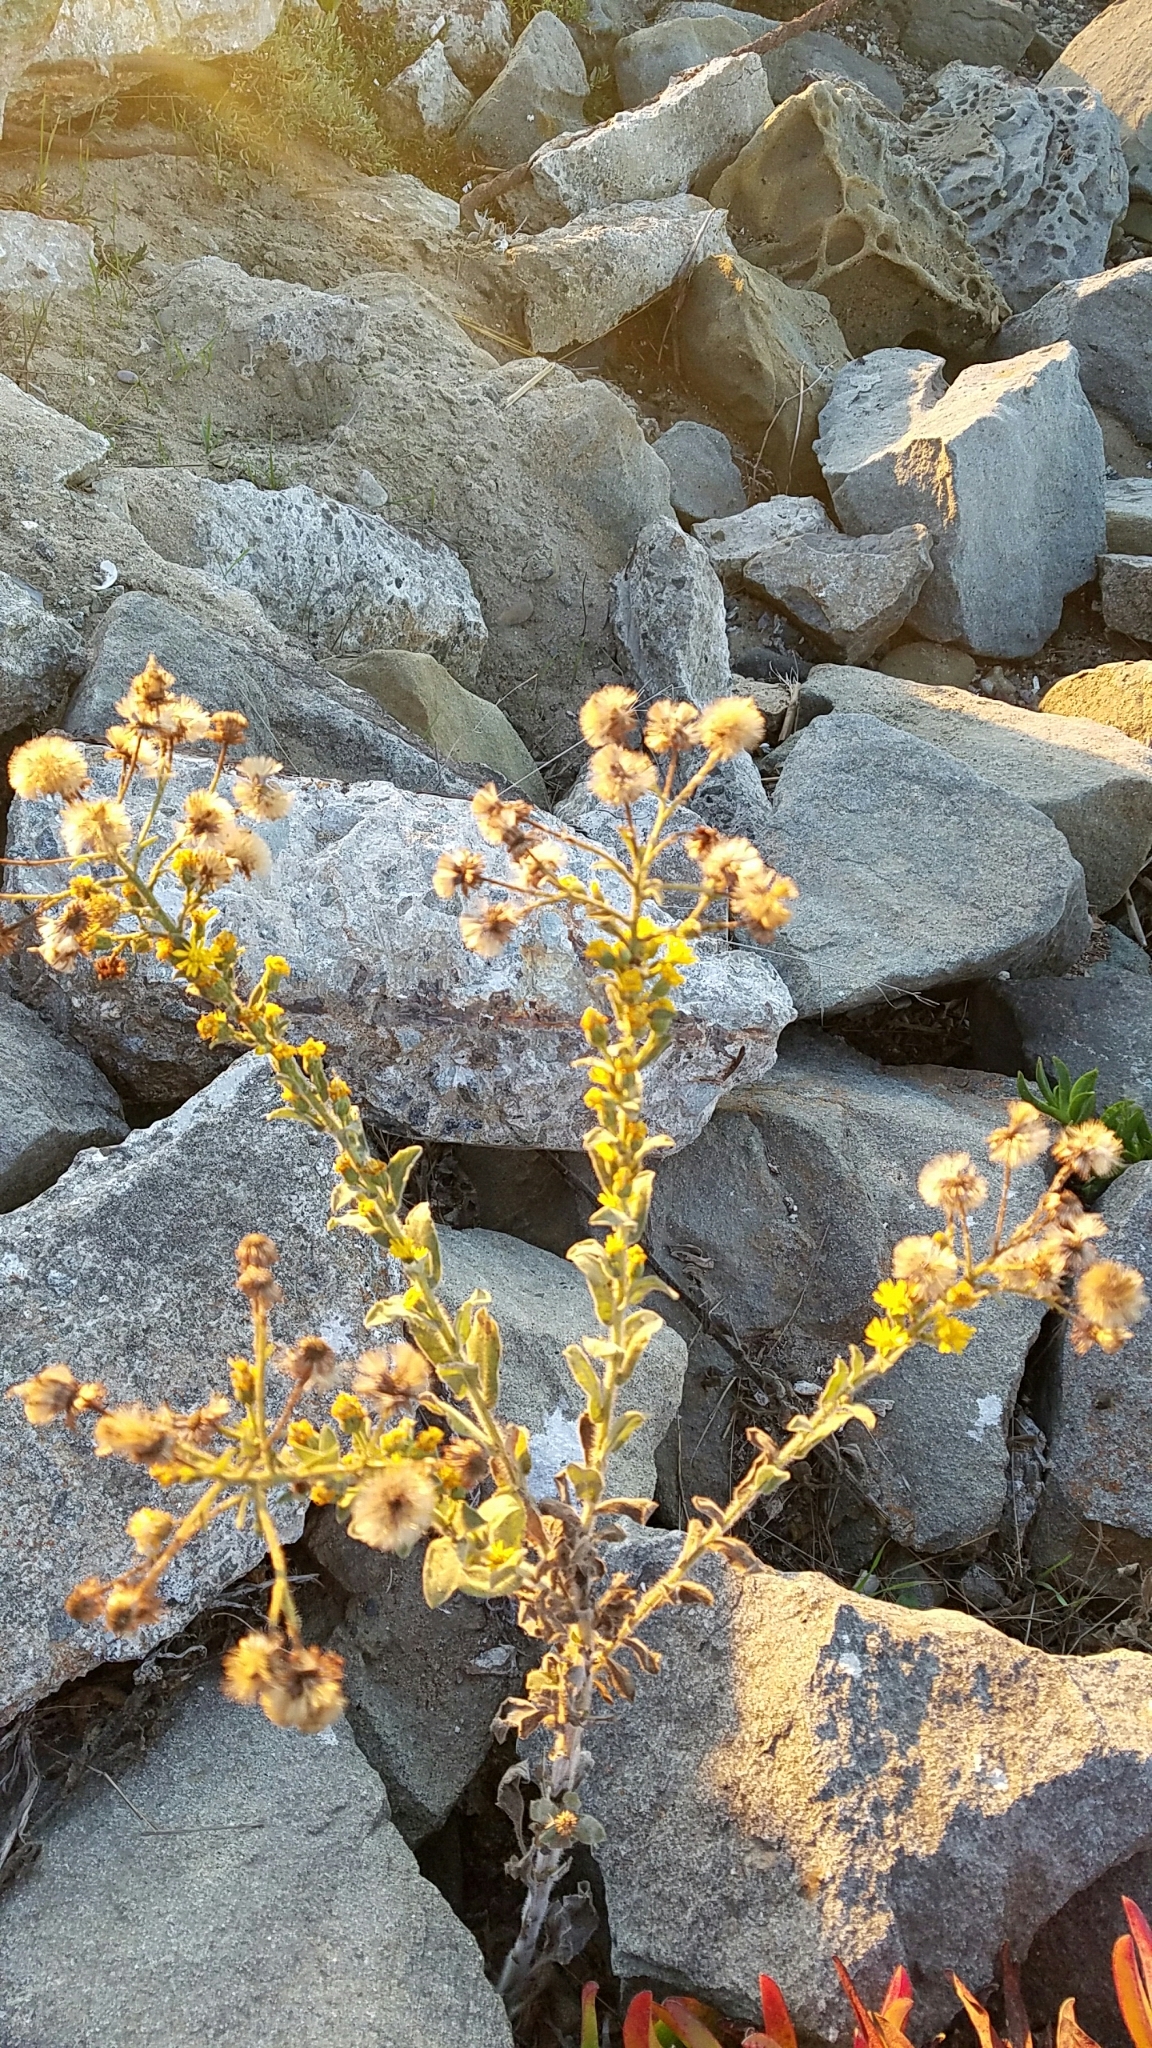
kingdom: Plantae
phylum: Tracheophyta
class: Magnoliopsida
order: Asterales
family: Asteraceae
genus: Heterotheca
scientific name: Heterotheca grandiflora
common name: Telegraphweed
